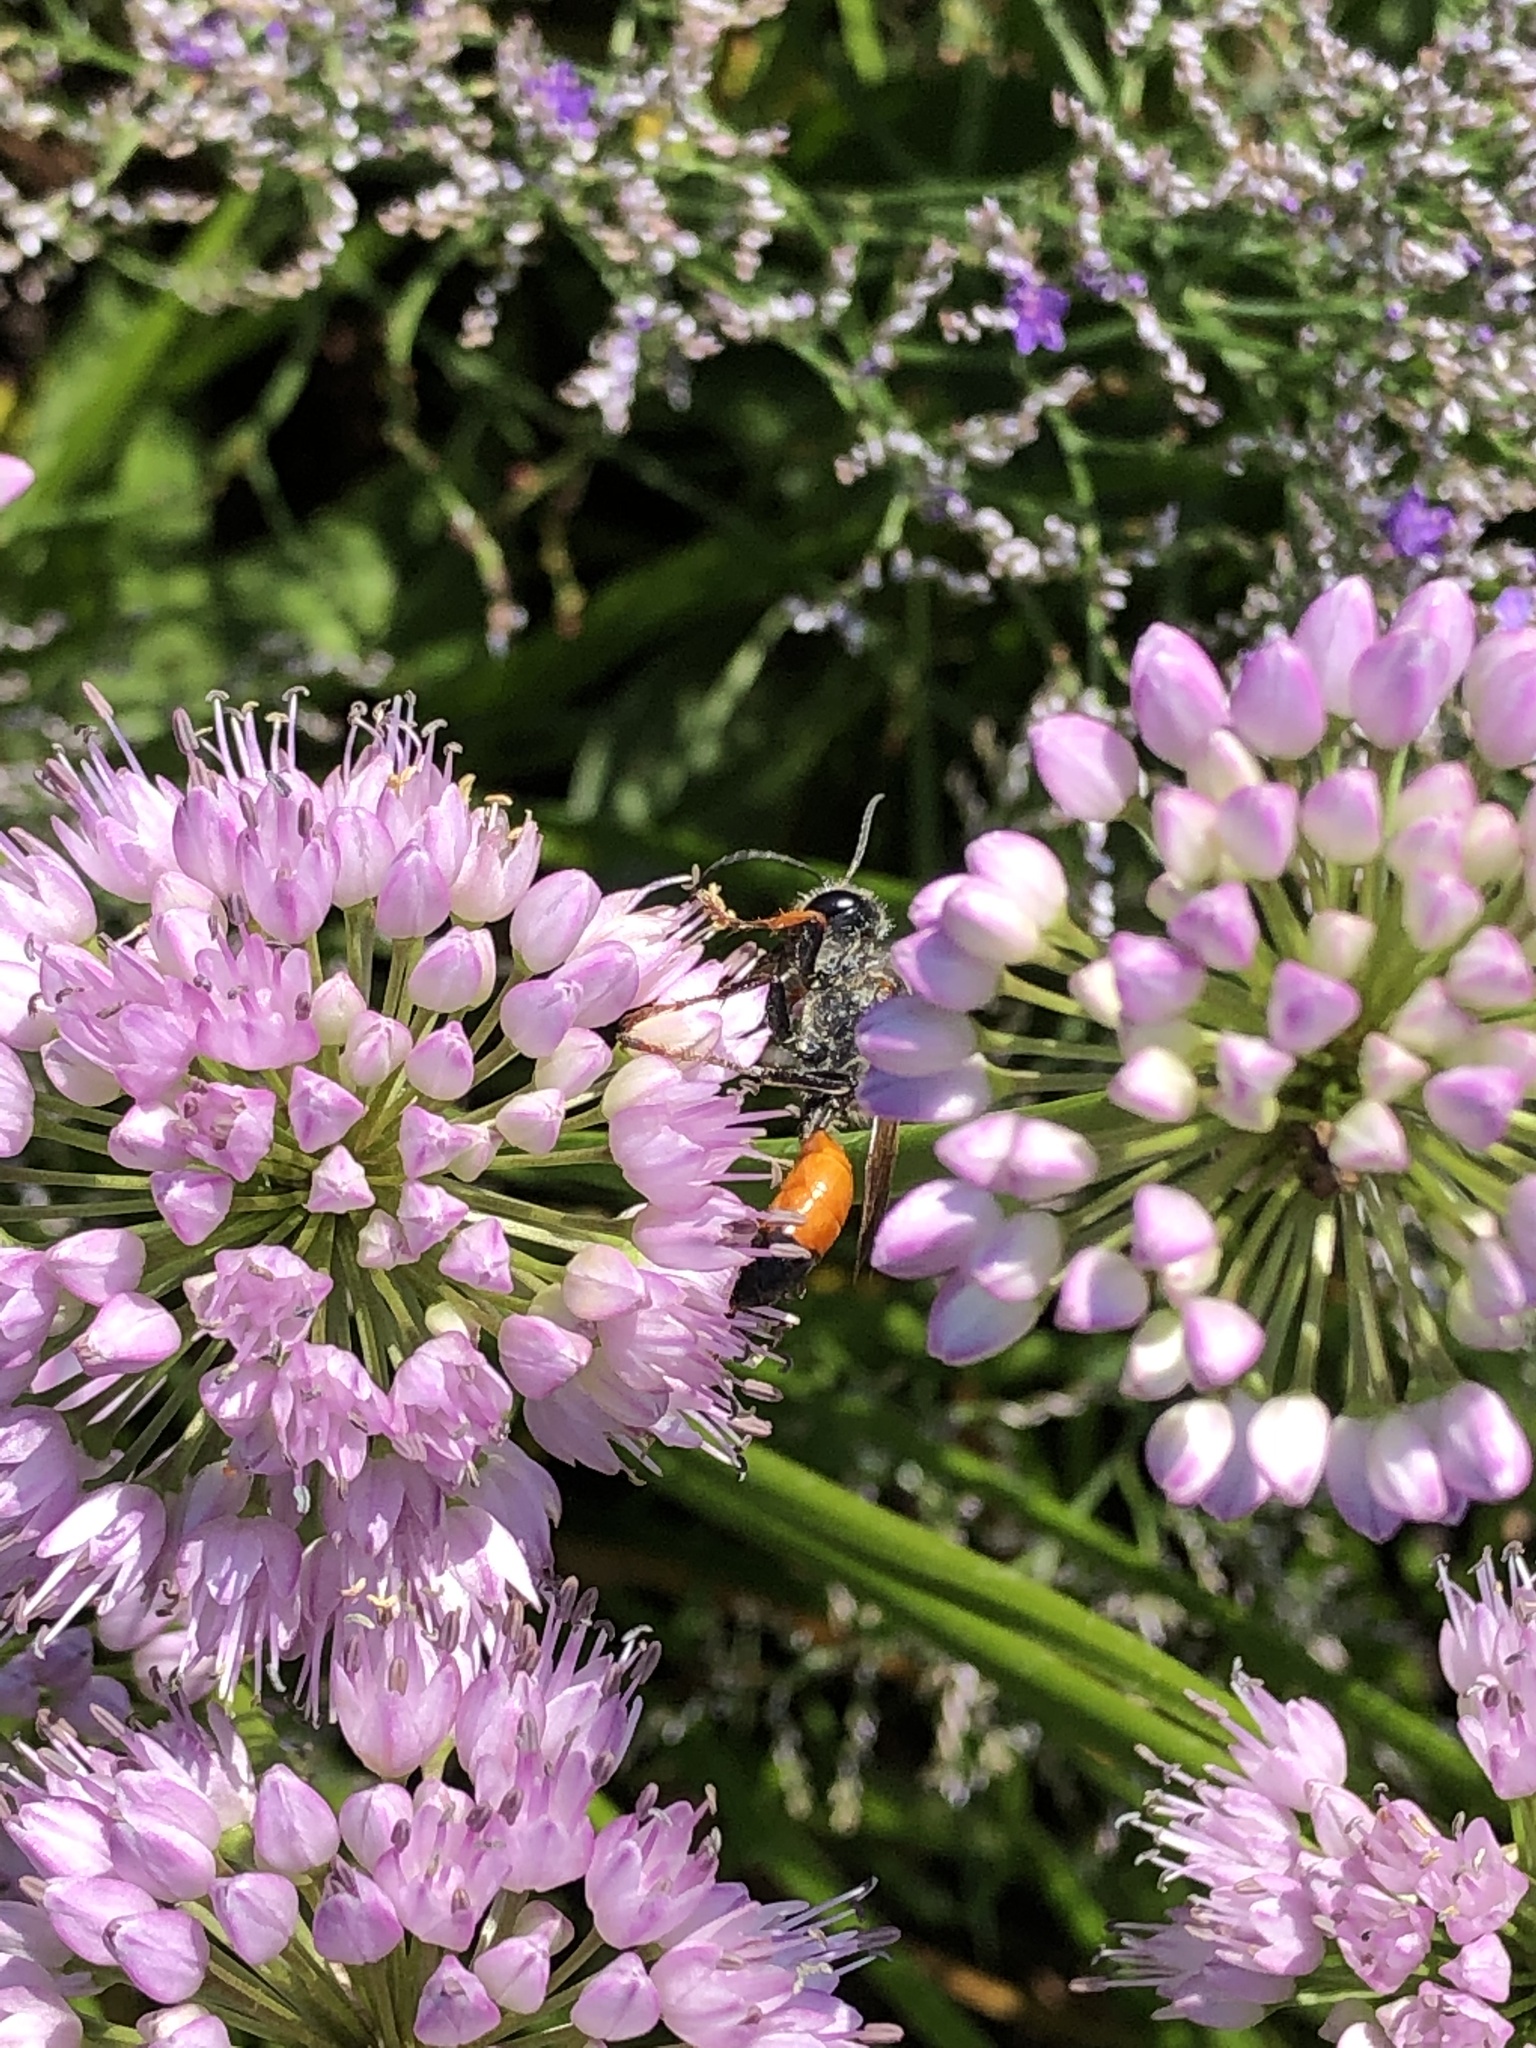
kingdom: Animalia
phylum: Arthropoda
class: Insecta
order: Hymenoptera
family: Sphecidae
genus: Sphex
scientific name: Sphex funerarius
